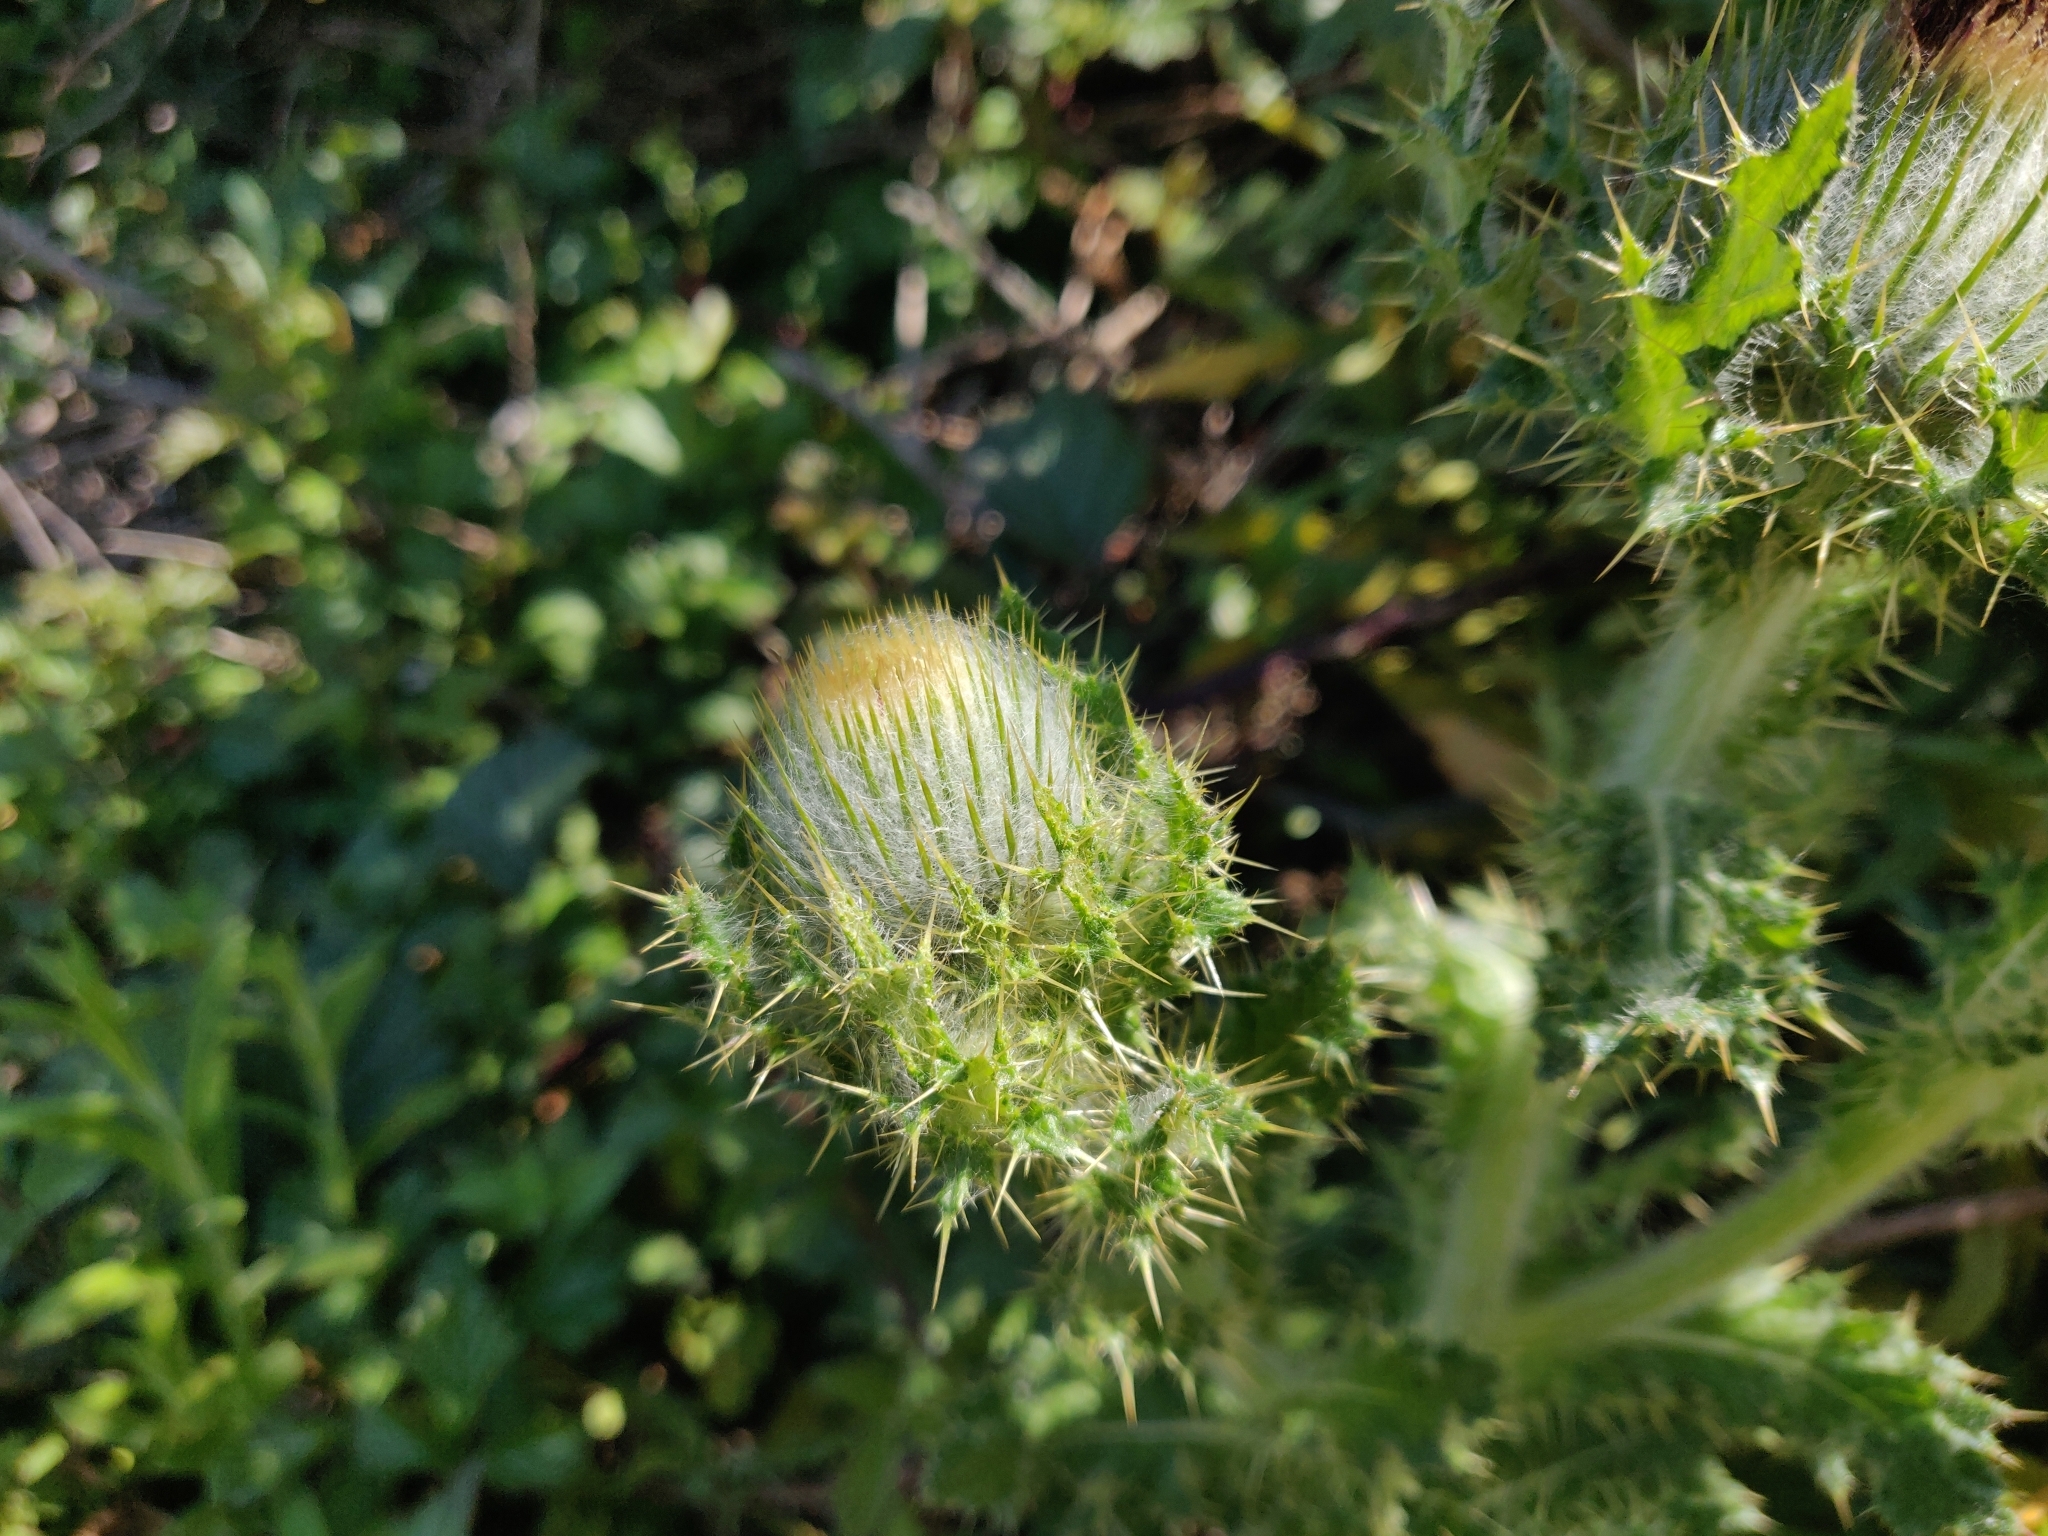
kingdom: Plantae
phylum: Tracheophyta
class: Magnoliopsida
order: Asterales
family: Asteraceae
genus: Cirsium
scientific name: Cirsium brevistylum
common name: Indian thistle
